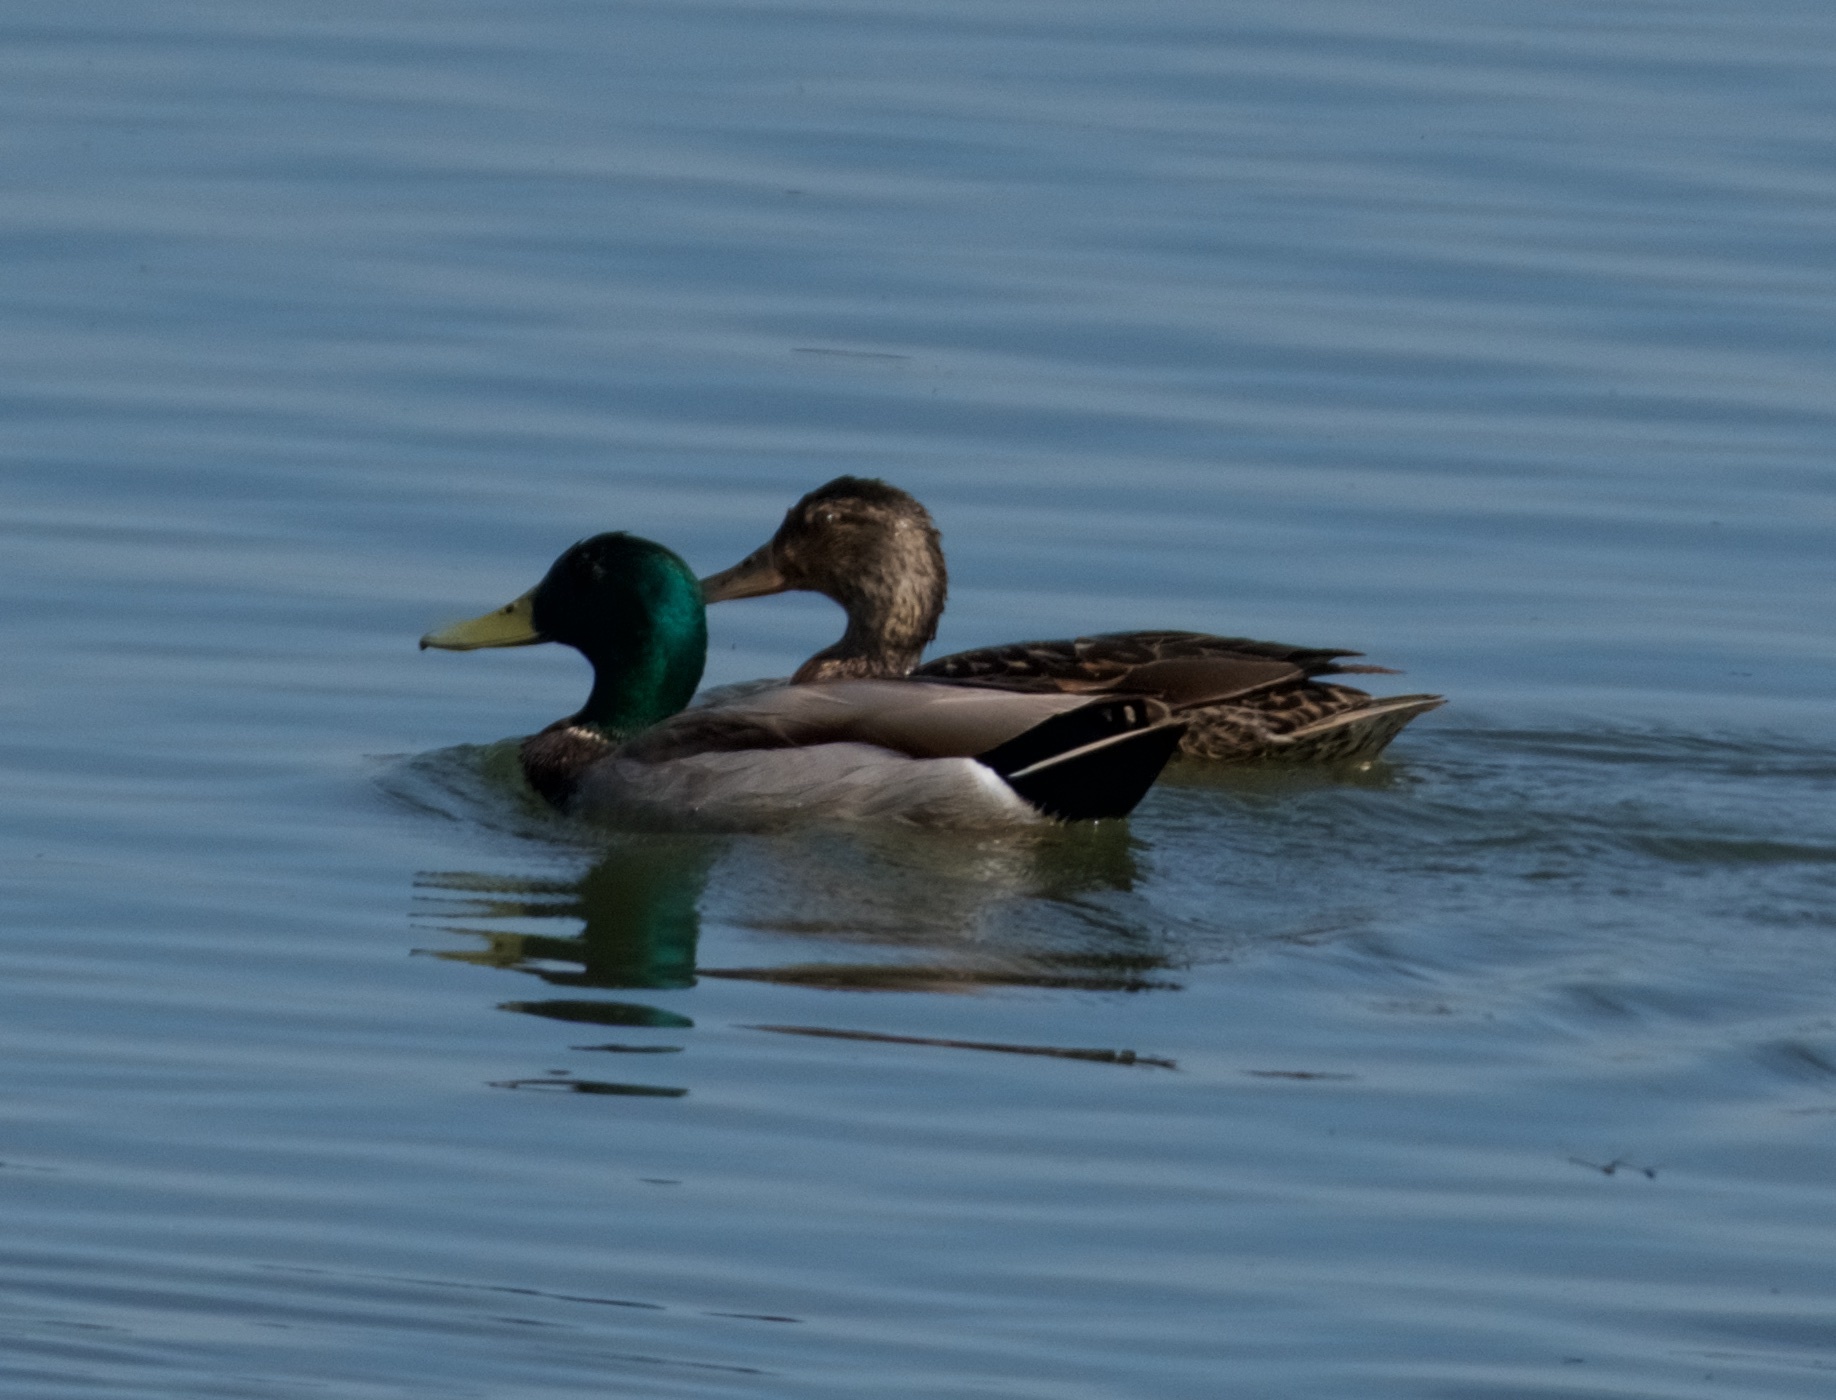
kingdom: Animalia
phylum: Chordata
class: Aves
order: Anseriformes
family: Anatidae
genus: Anas
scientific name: Anas platyrhynchos
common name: Mallard
